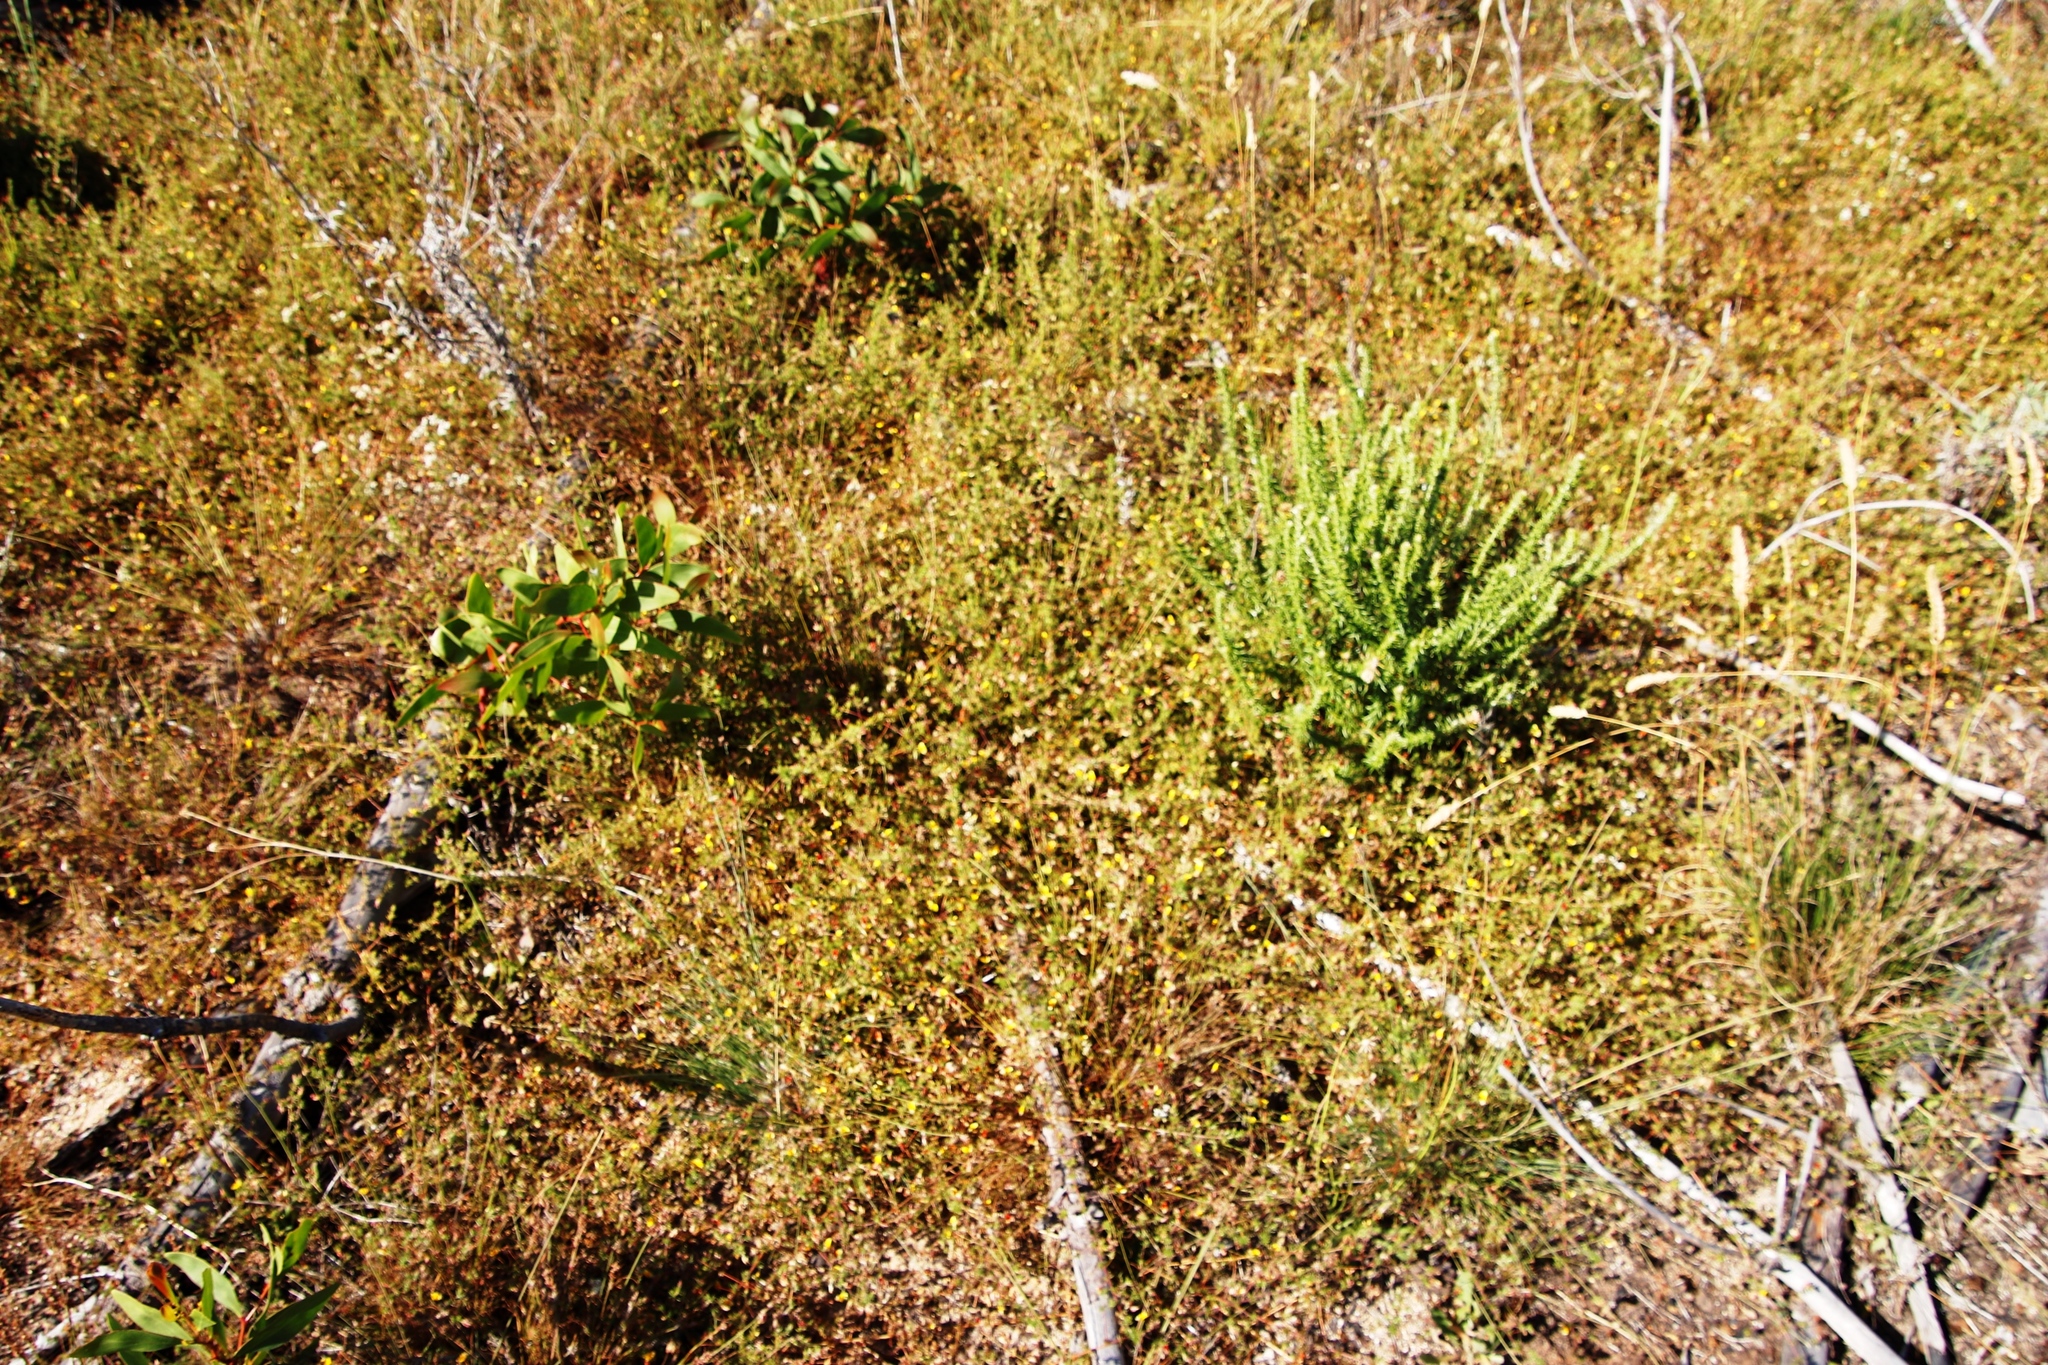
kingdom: Plantae
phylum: Tracheophyta
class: Magnoliopsida
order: Fabales
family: Fabaceae
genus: Aspalathus
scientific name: Aspalathus retroflexa
